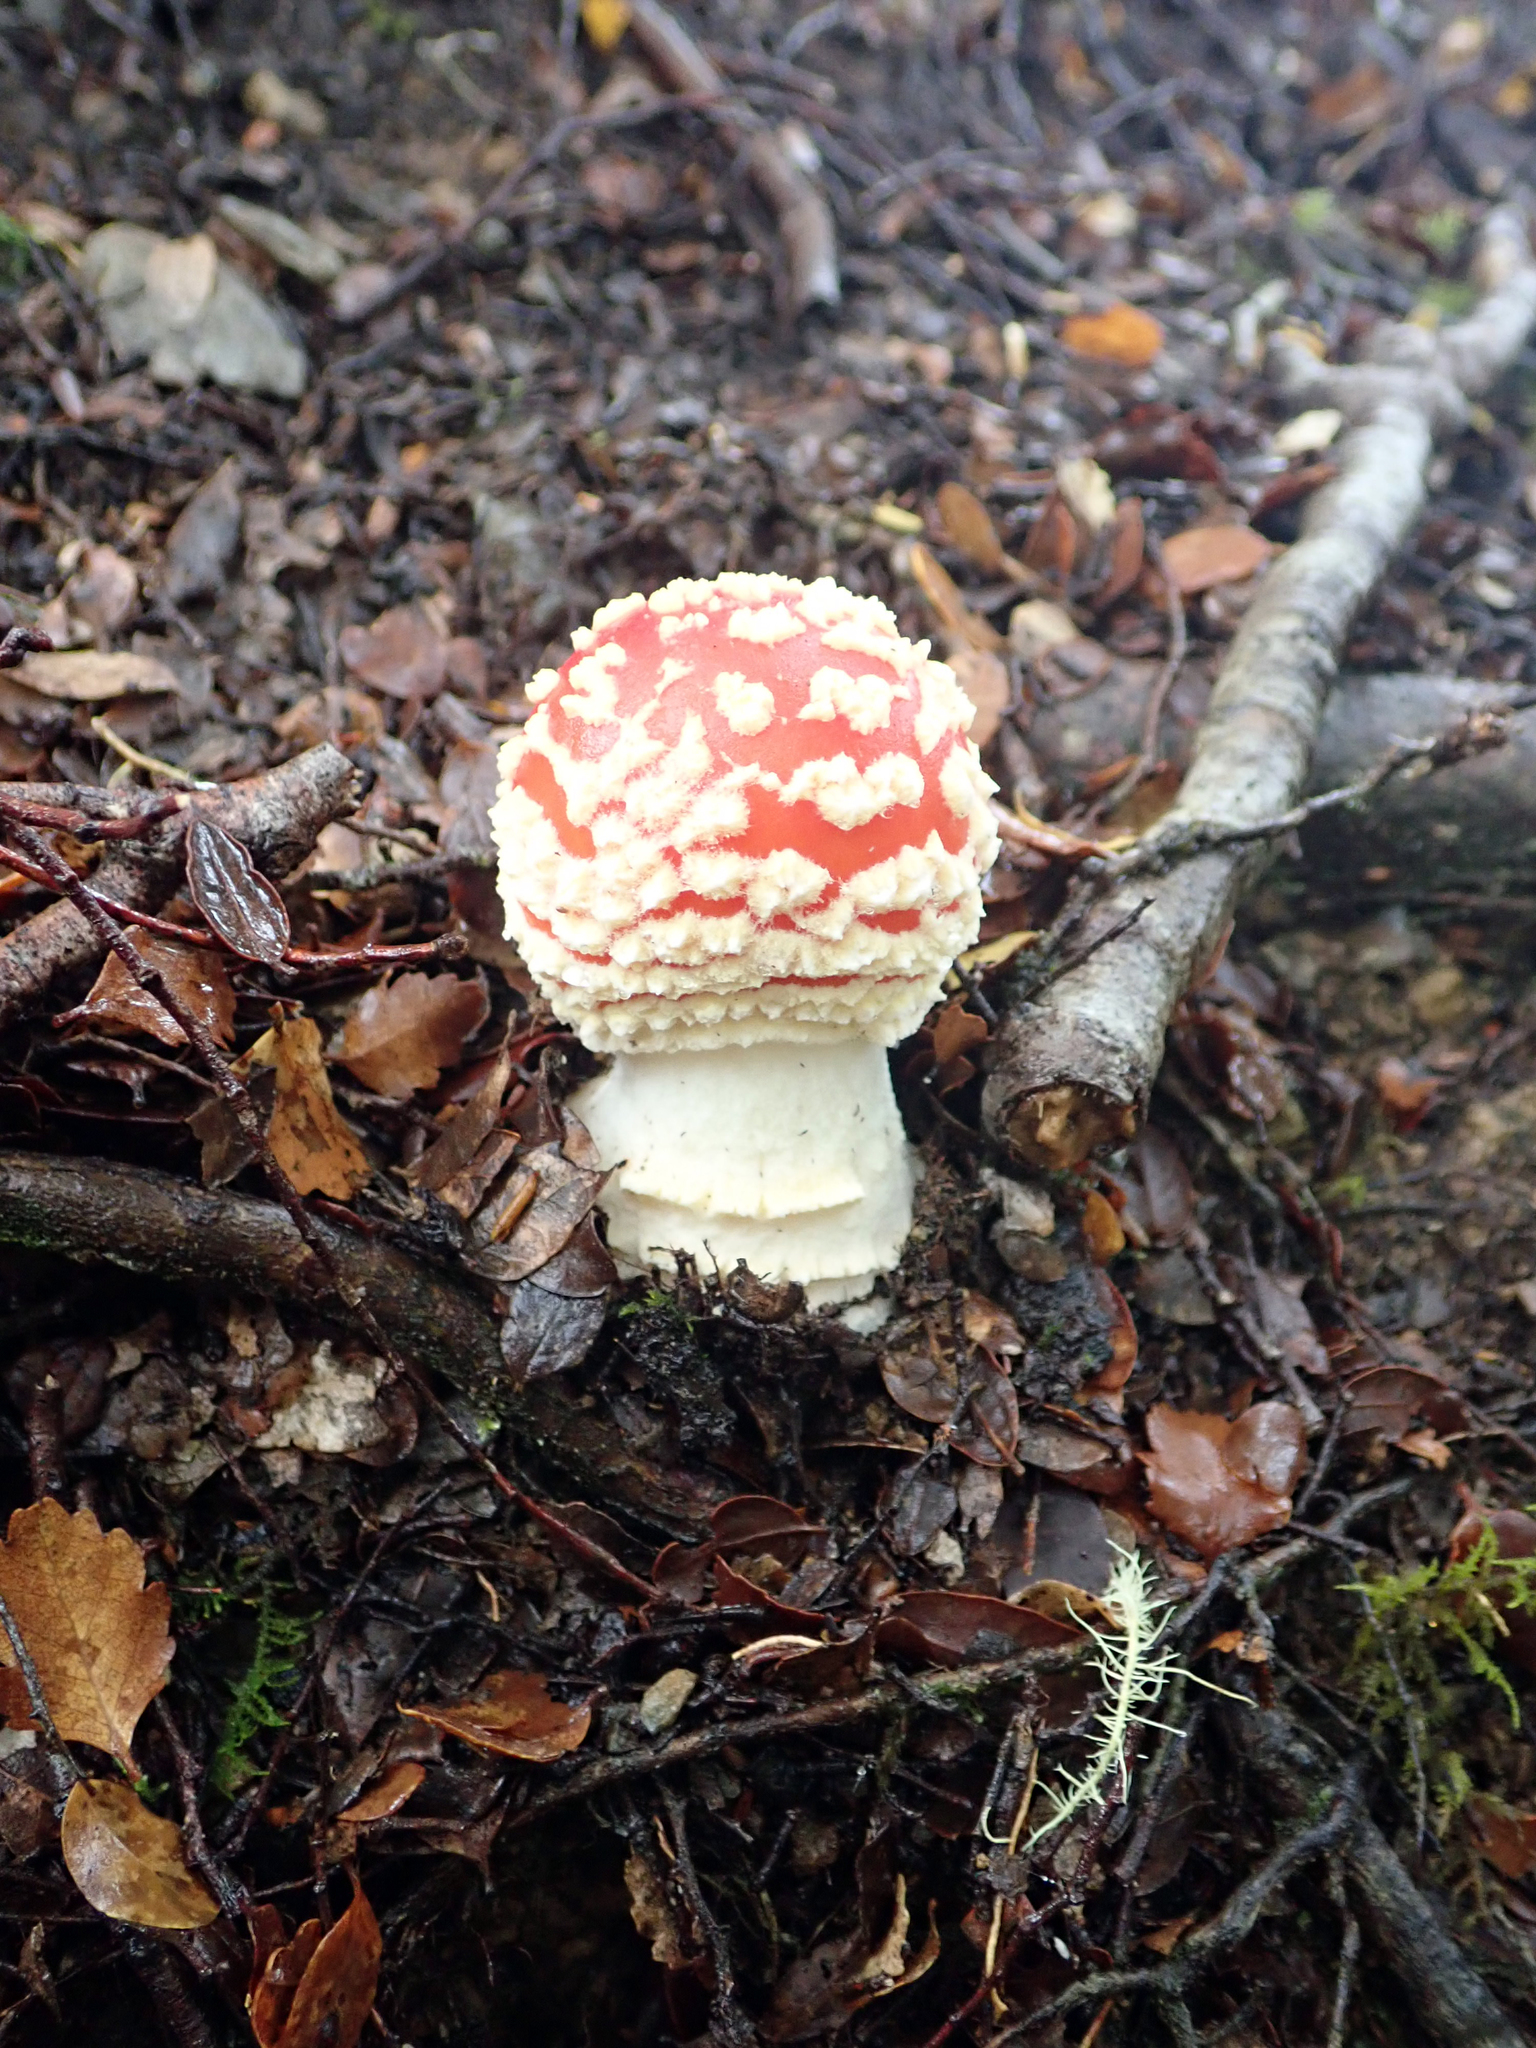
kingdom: Fungi
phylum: Basidiomycota
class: Agaricomycetes
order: Agaricales
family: Amanitaceae
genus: Amanita
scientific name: Amanita muscaria
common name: Fly agaric
